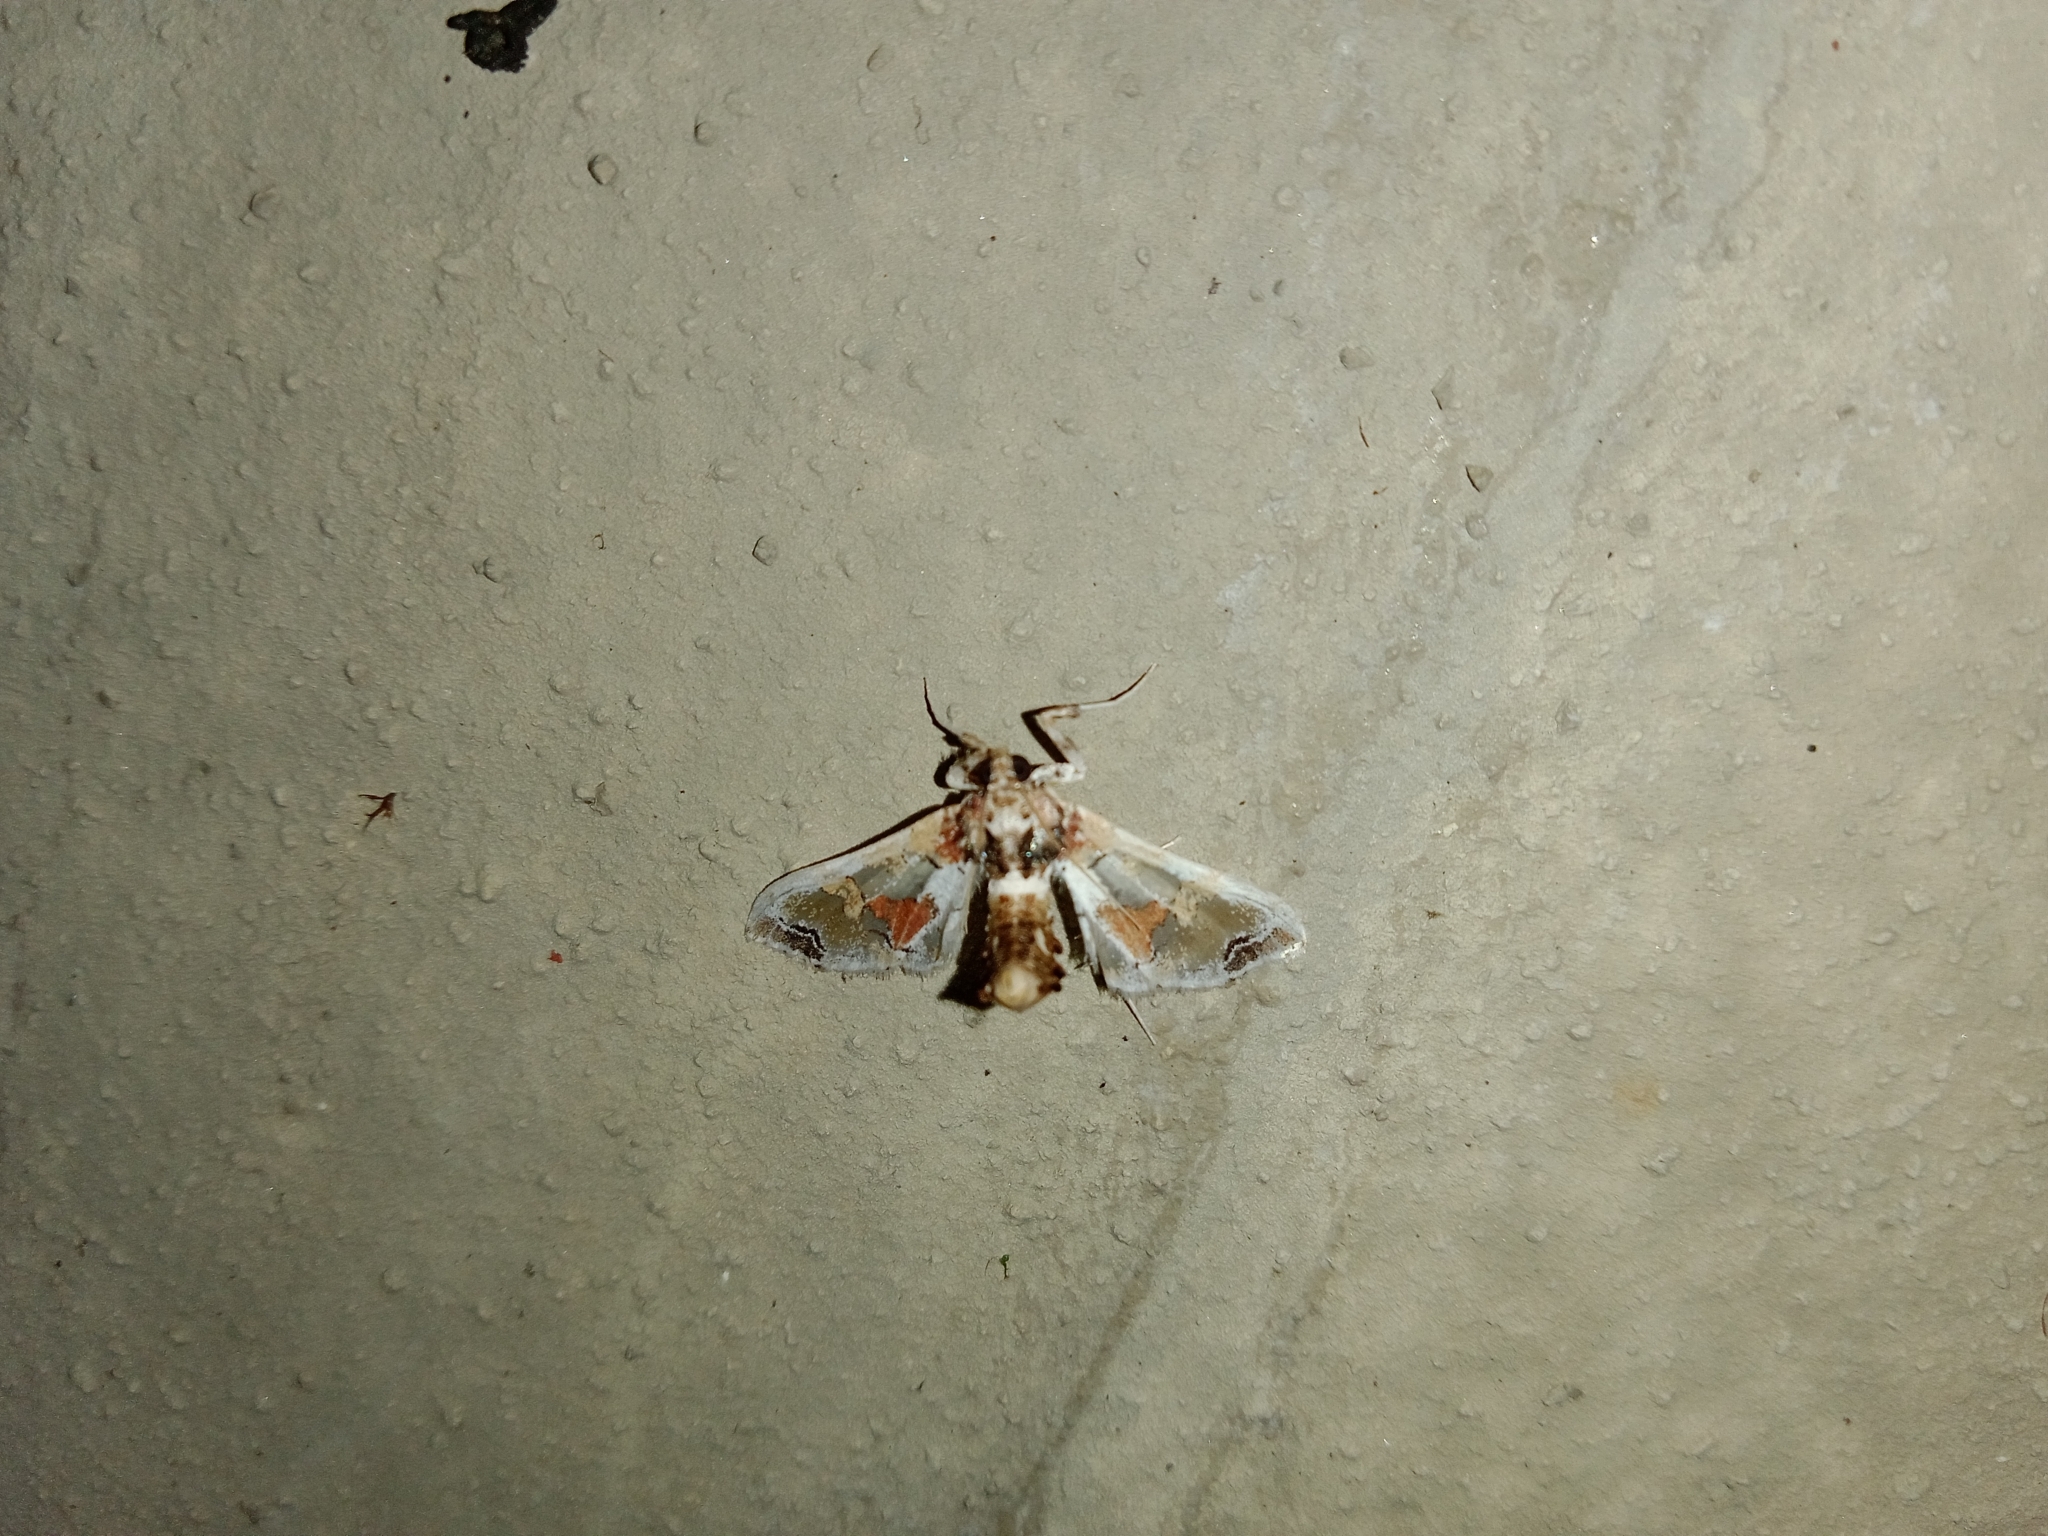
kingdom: Animalia
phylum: Arthropoda
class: Insecta
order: Lepidoptera
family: Crambidae
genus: Leucinodes
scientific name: Leucinodes orbonalis
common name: Aubergine pearl
